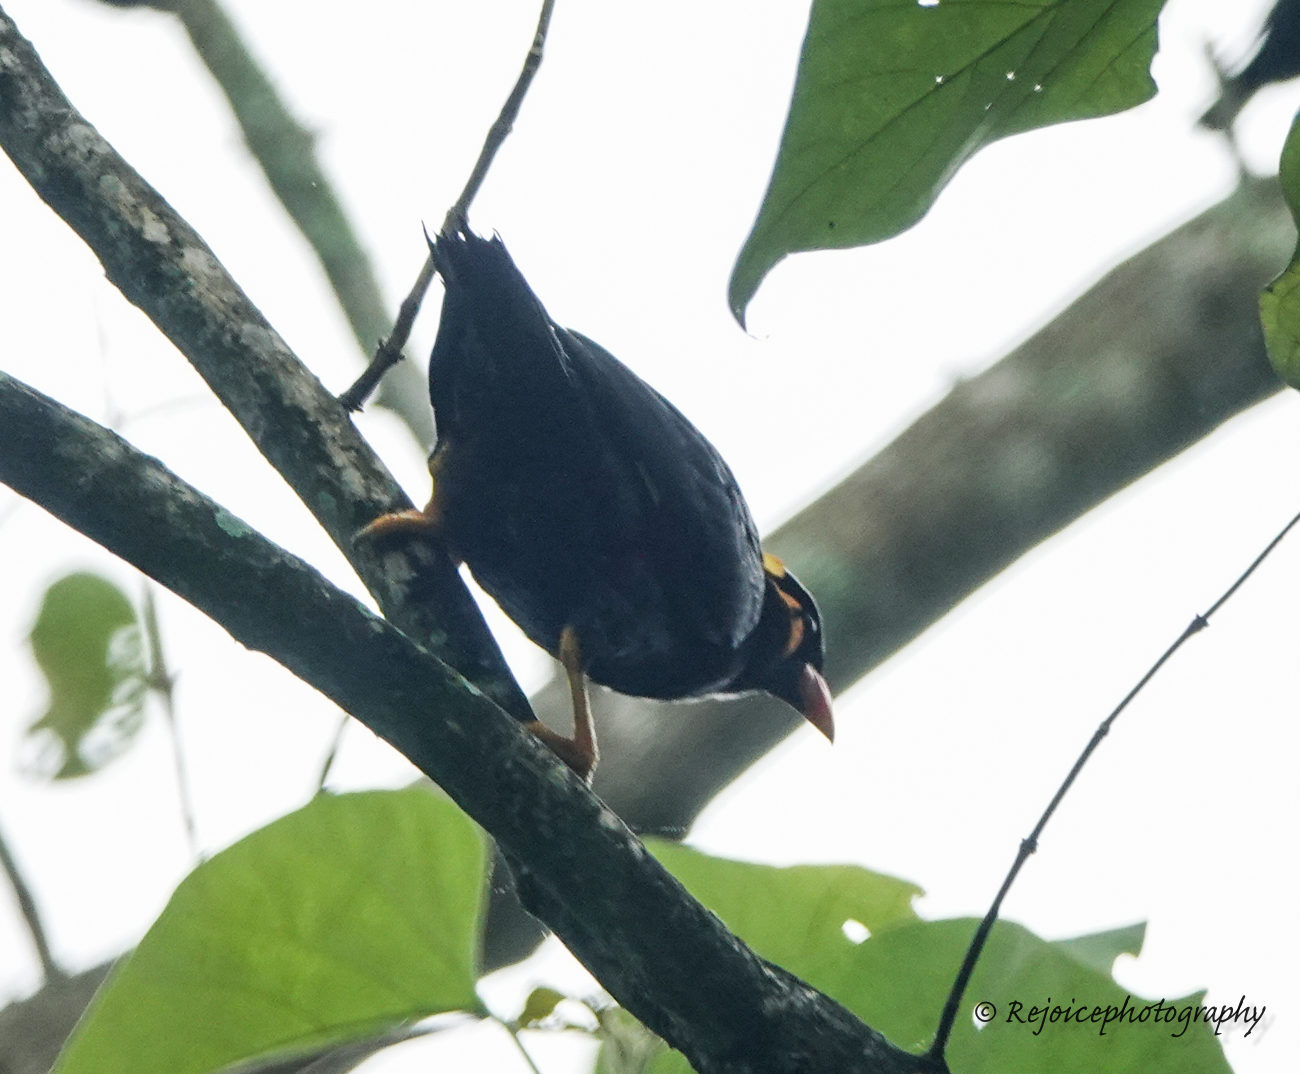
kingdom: Animalia
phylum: Chordata
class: Aves
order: Passeriformes
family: Sturnidae
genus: Gracula
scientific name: Gracula religiosa
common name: Common hill myna
